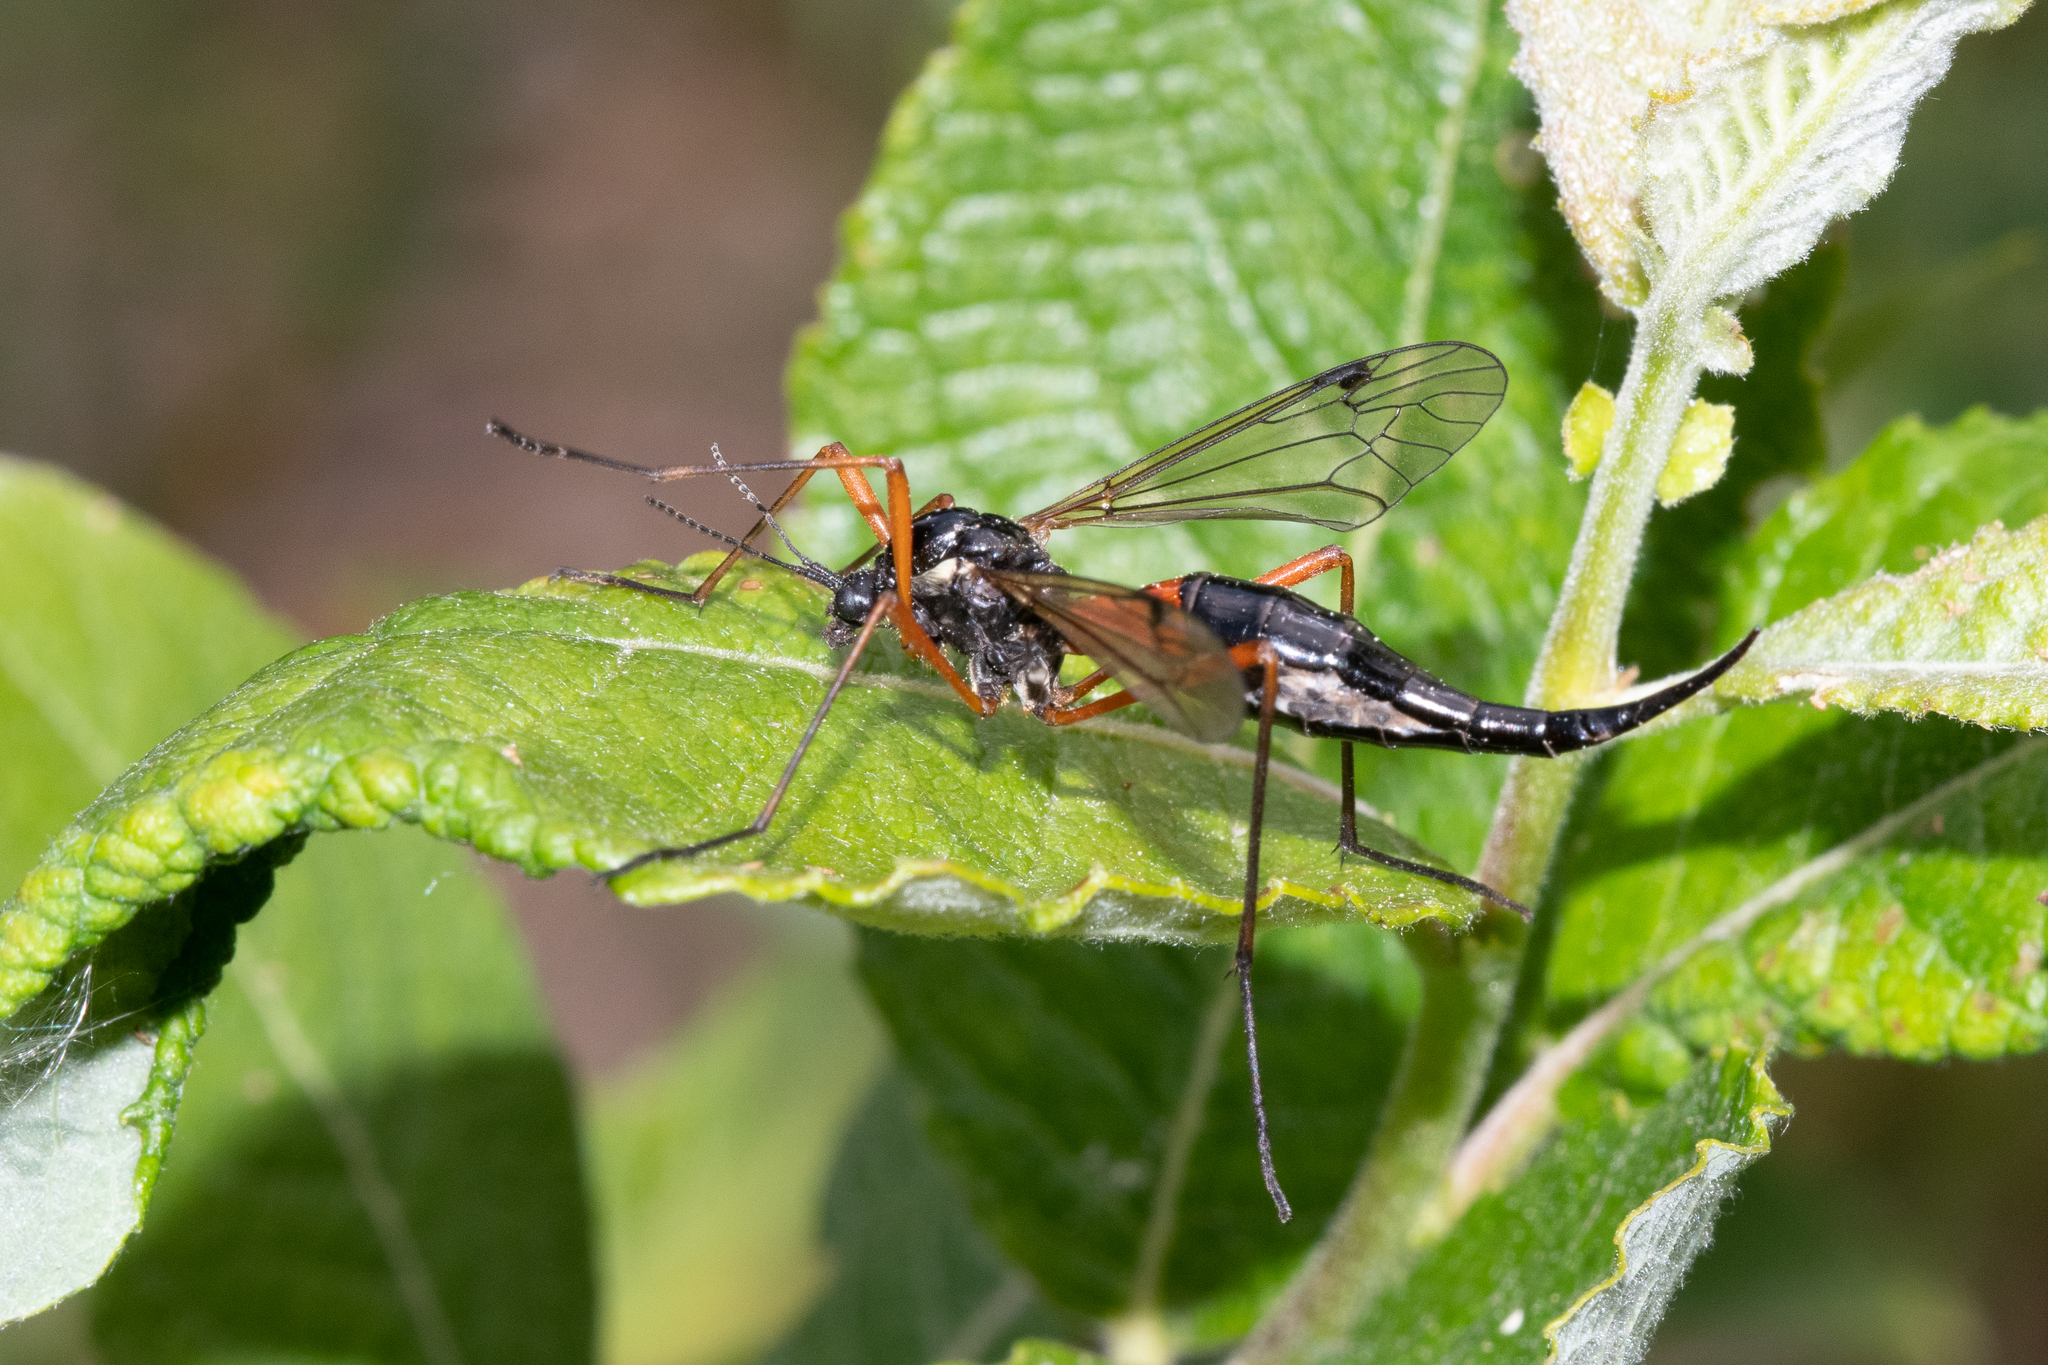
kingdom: Animalia
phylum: Arthropoda
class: Insecta
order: Diptera
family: Tipulidae
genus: Tanyptera
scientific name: Tanyptera atrata
